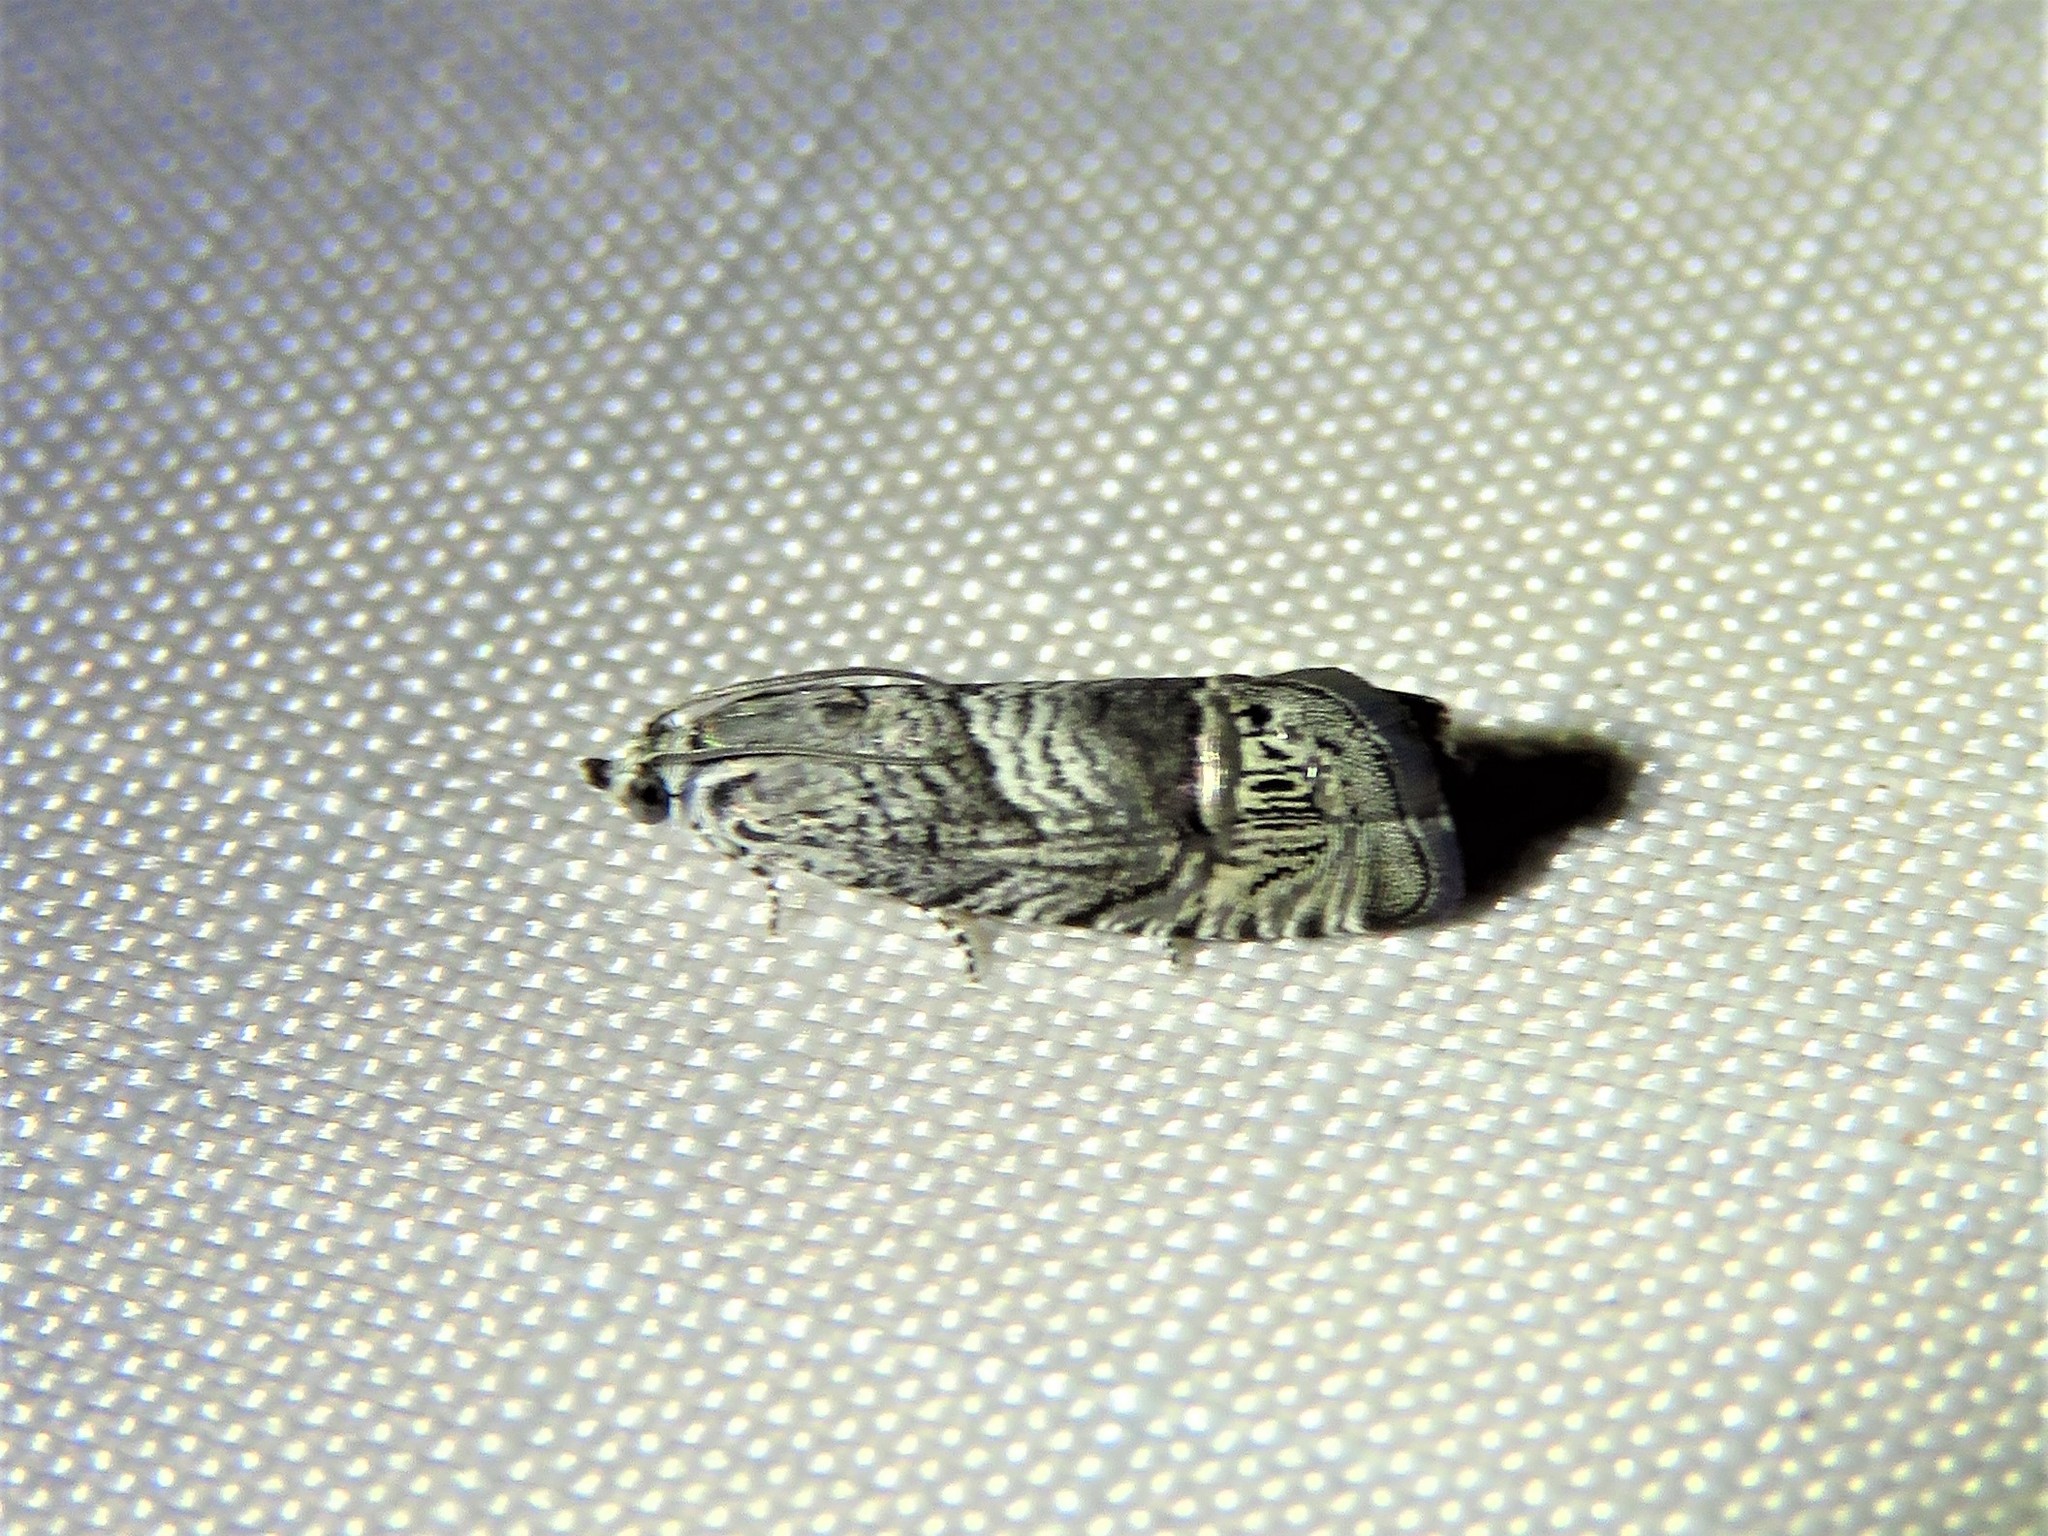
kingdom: Animalia
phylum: Arthropoda
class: Insecta
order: Lepidoptera
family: Tortricidae
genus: Ofatulena
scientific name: Ofatulena duodecemstriata
